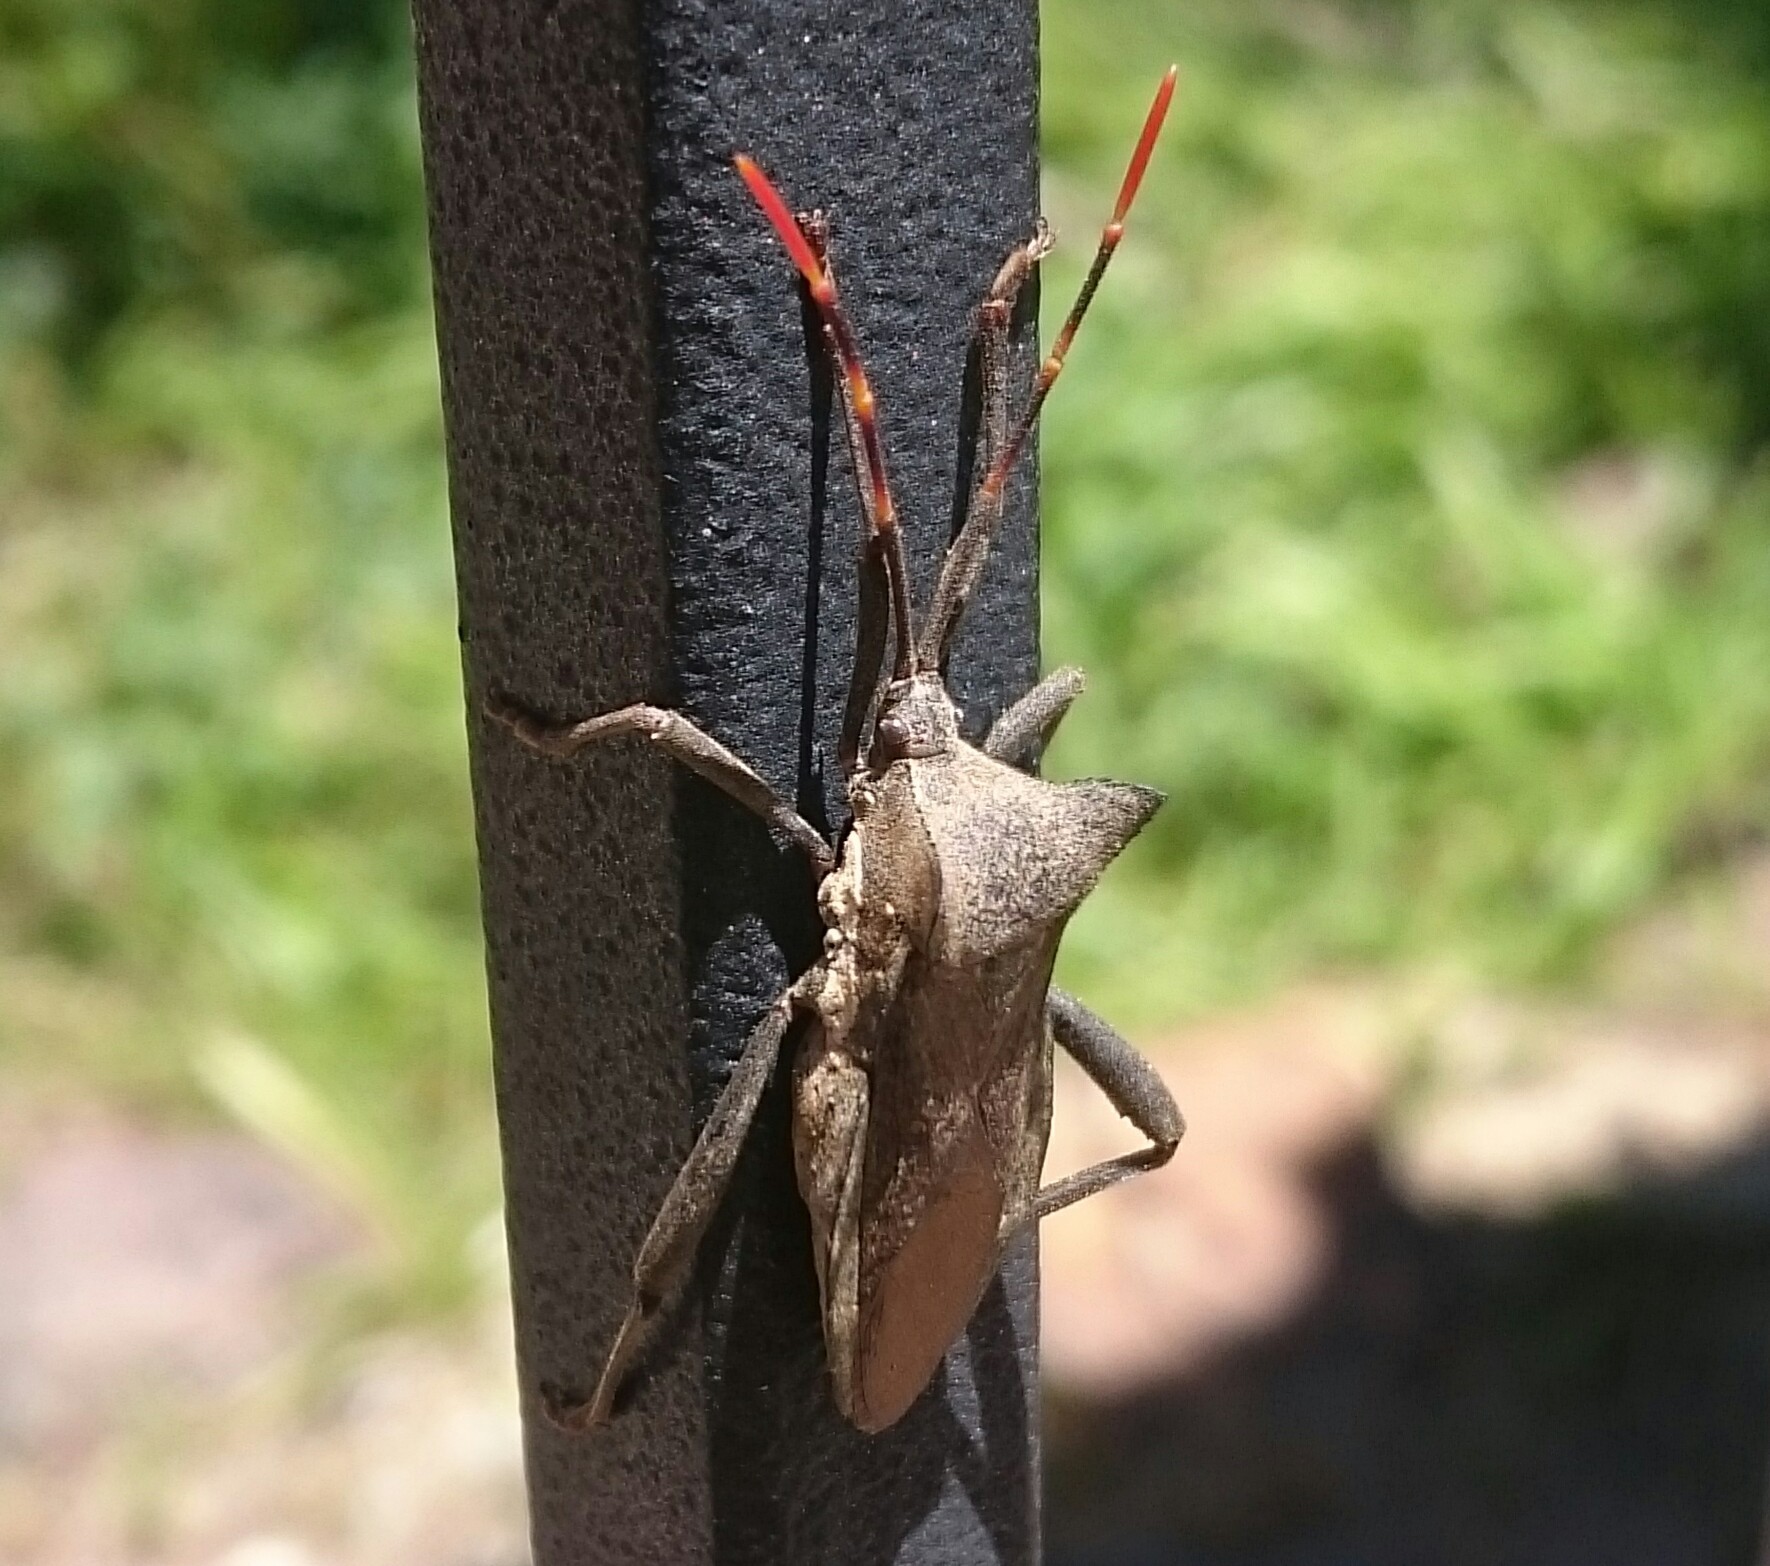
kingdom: Animalia
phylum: Arthropoda
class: Insecta
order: Hemiptera
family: Coreidae
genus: Elasmopoda
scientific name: Elasmopoda valga
